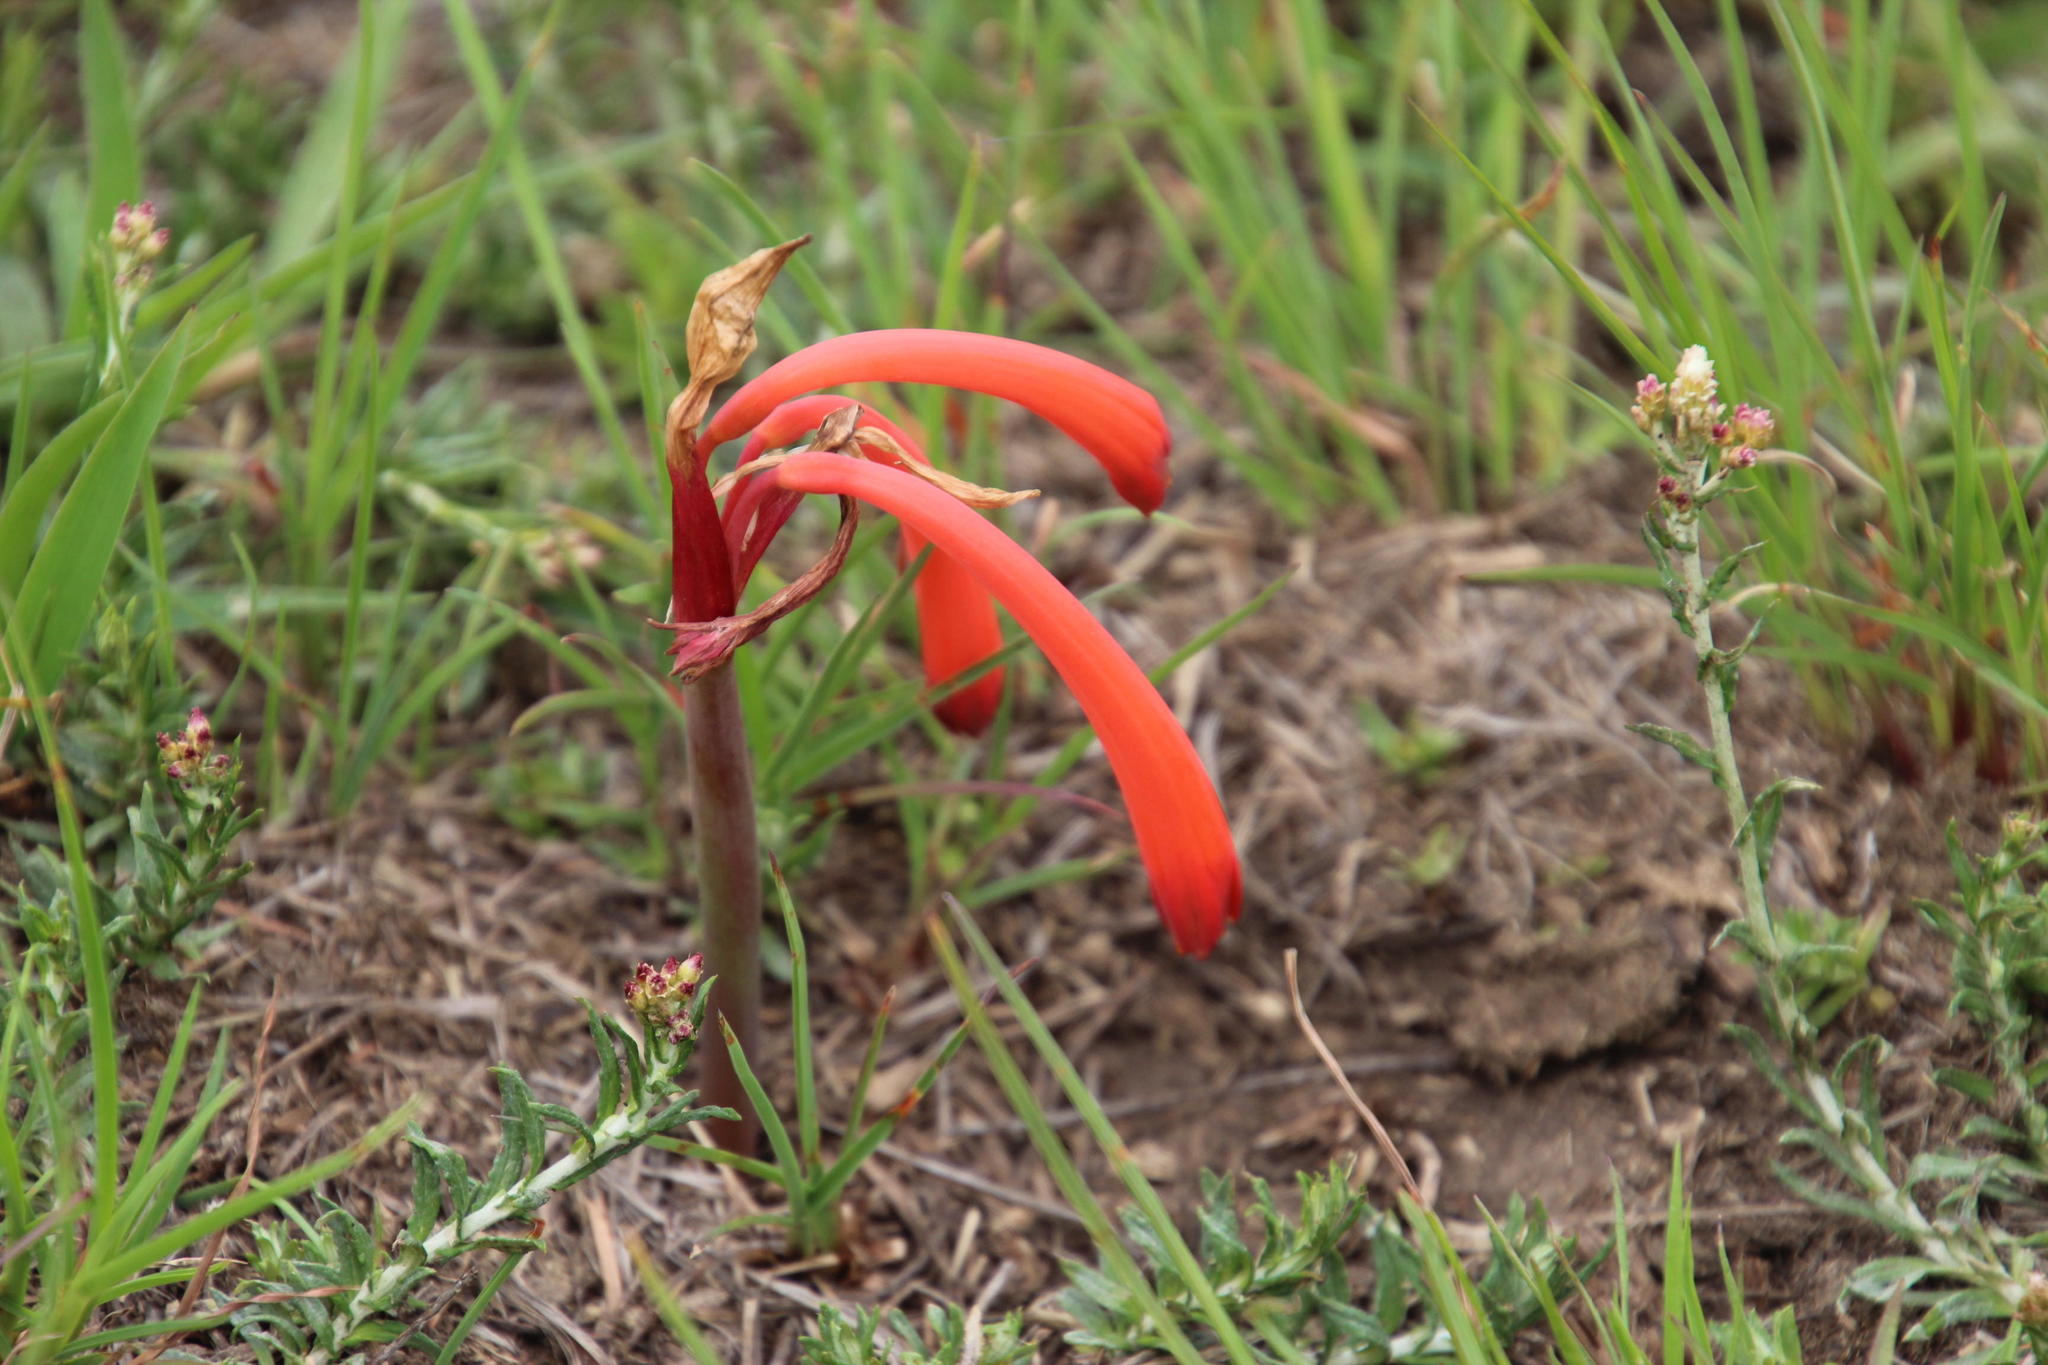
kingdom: Plantae
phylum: Tracheophyta
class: Liliopsida
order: Asparagales
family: Amaryllidaceae
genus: Cyrtanthus
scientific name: Cyrtanthus tuckii
